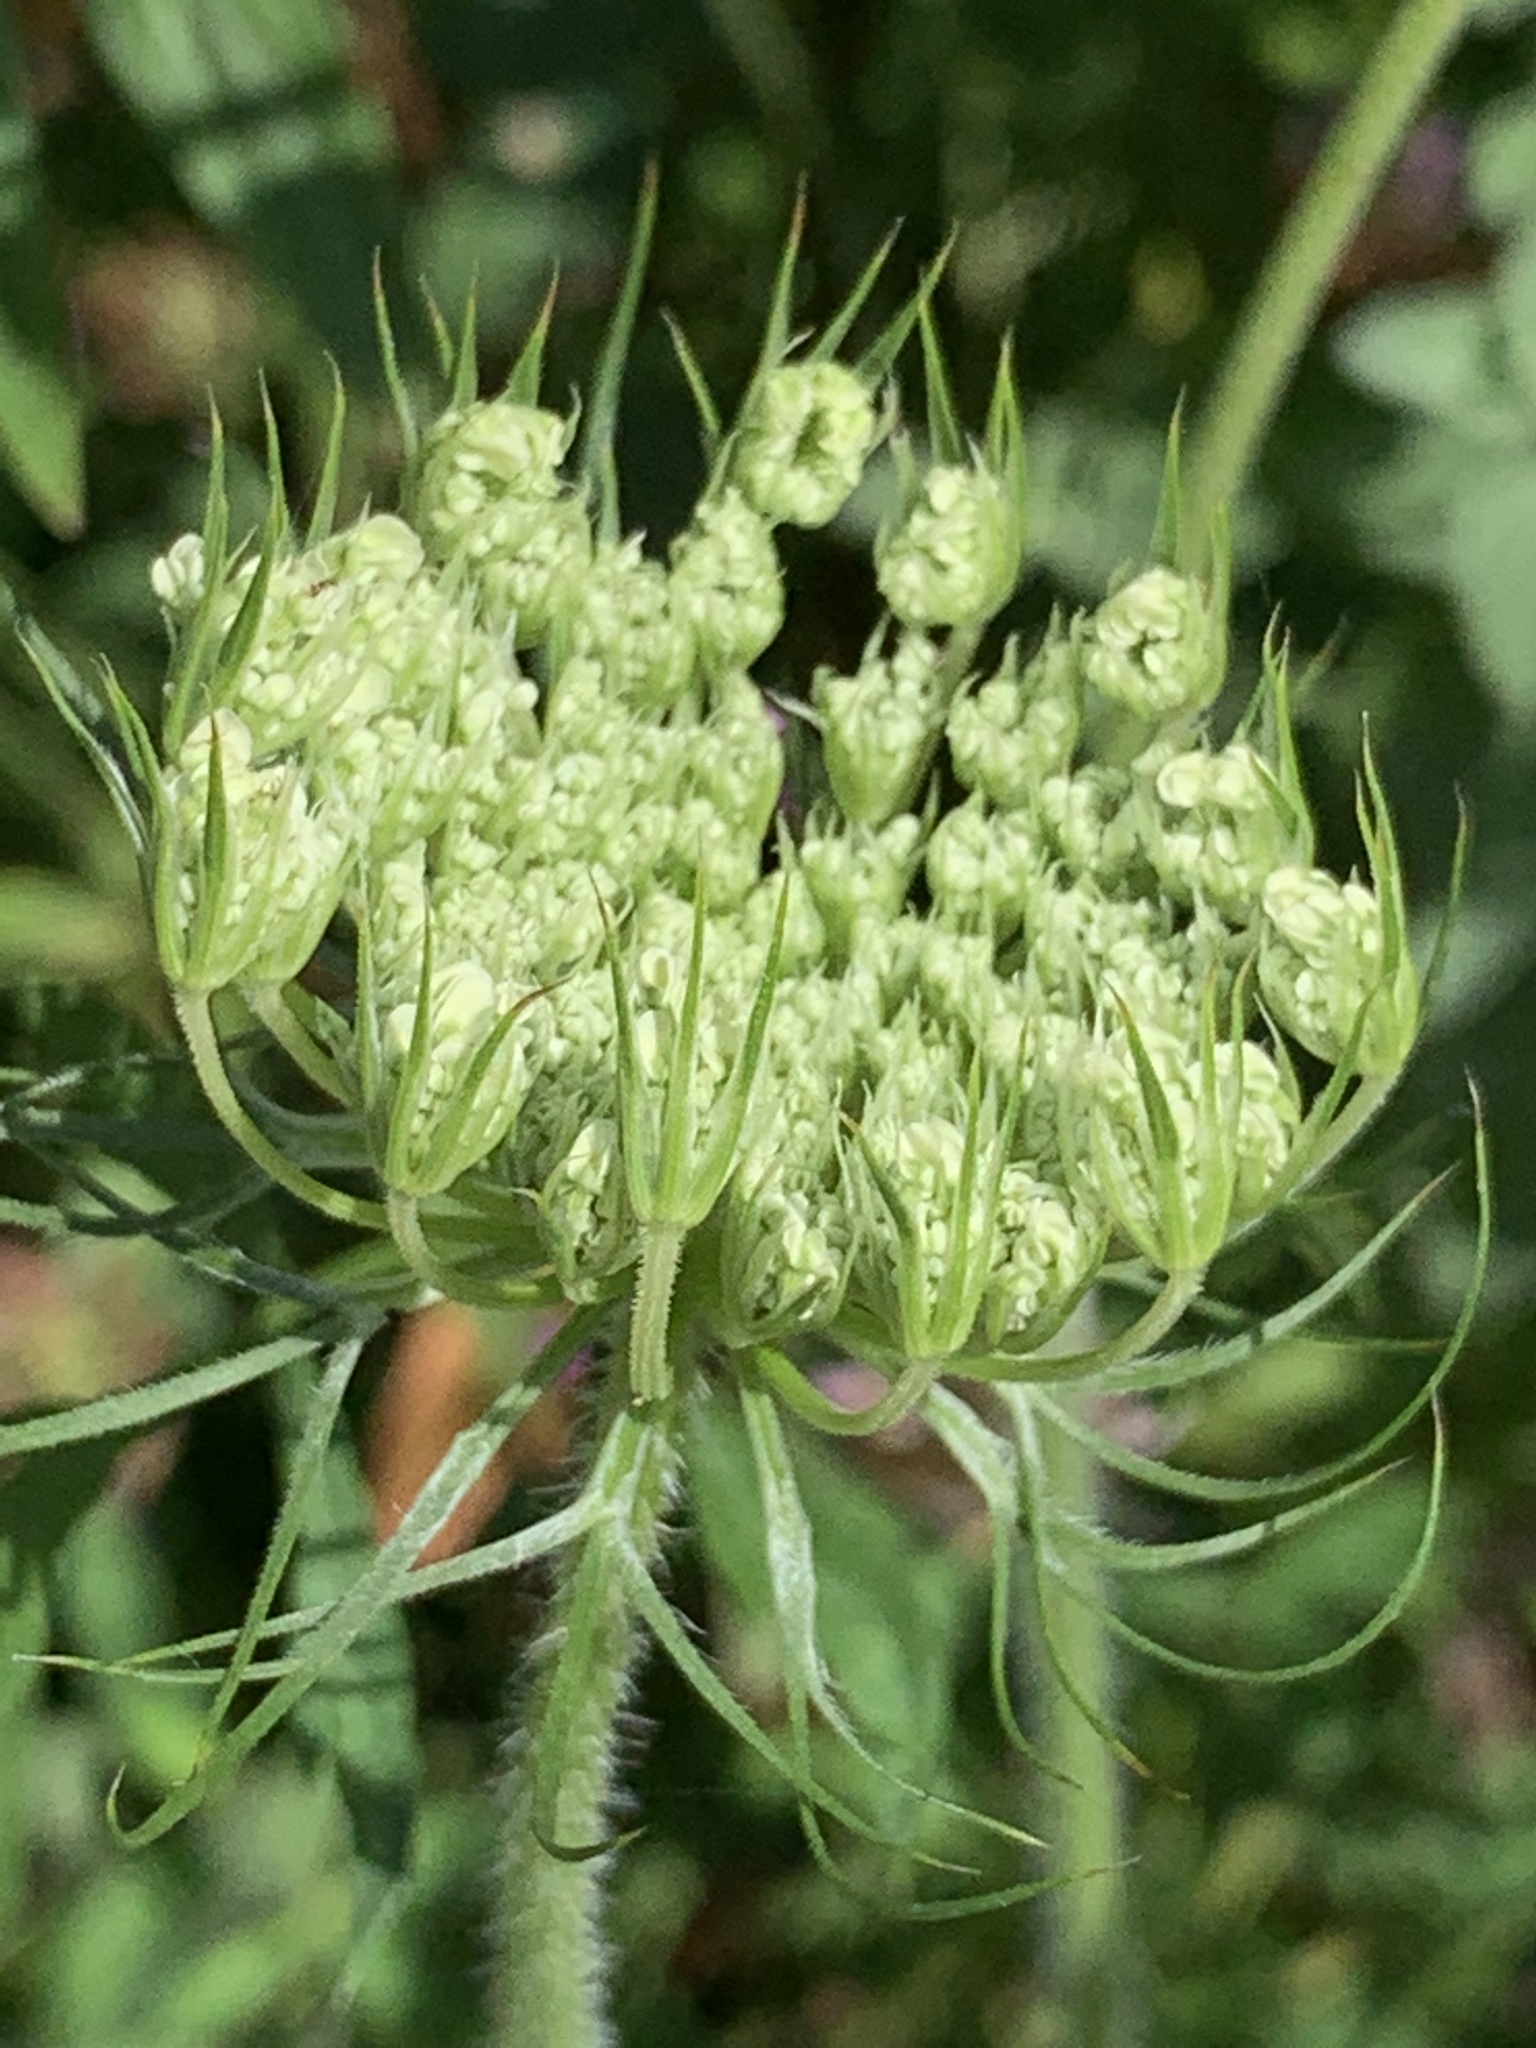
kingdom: Plantae
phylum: Tracheophyta
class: Magnoliopsida
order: Apiales
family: Apiaceae
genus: Daucus
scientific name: Daucus carota
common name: Wild carrot
